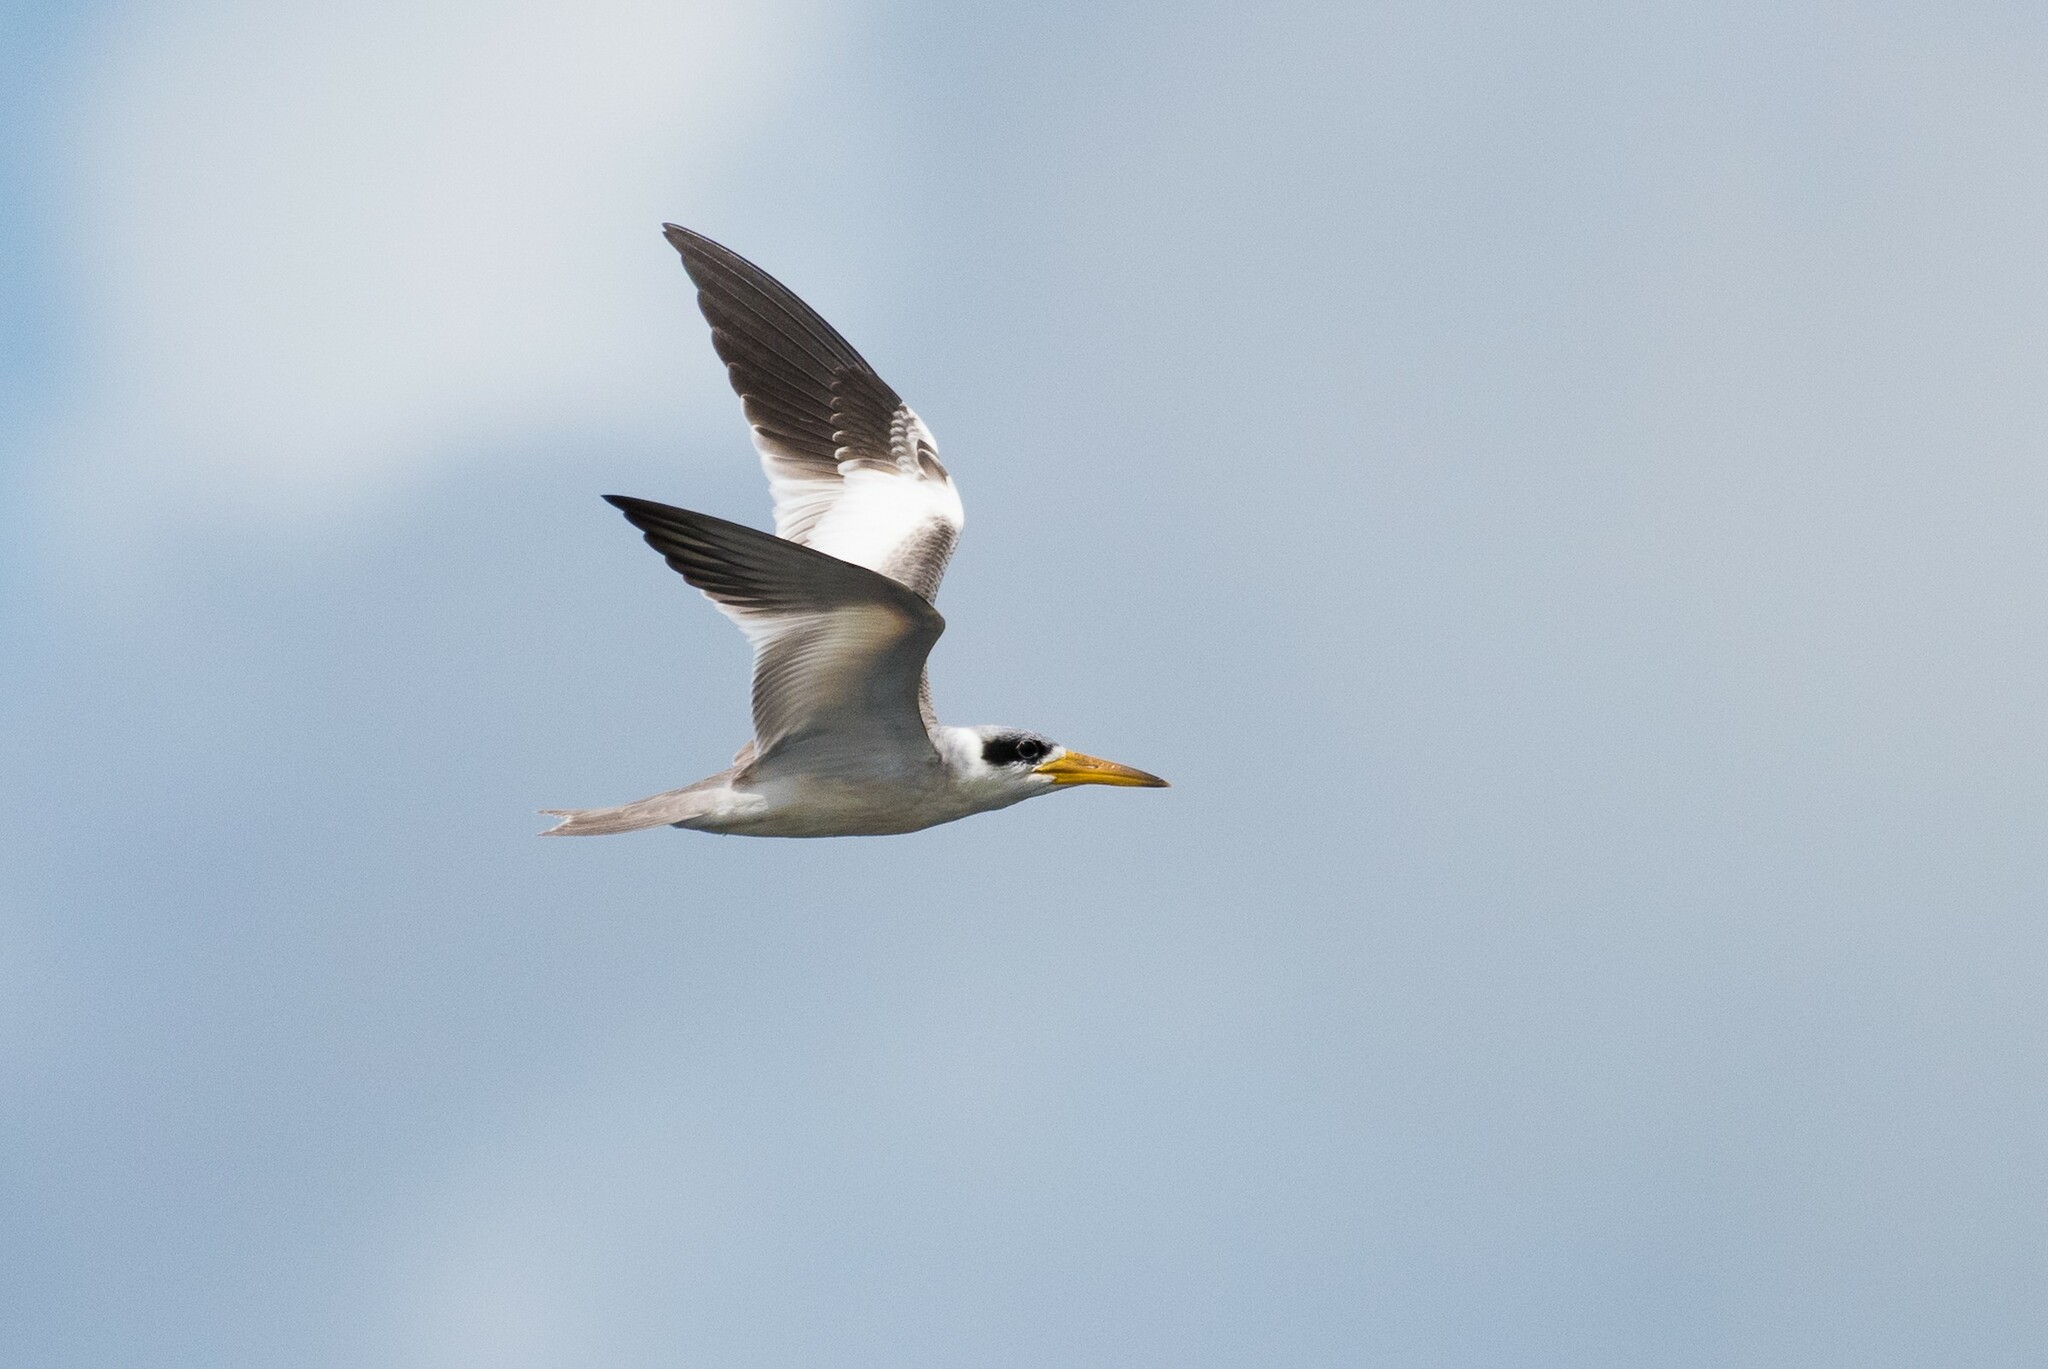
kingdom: Animalia
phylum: Chordata
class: Aves
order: Charadriiformes
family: Laridae
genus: Phaetusa
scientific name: Phaetusa simplex
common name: Large-billed tern
